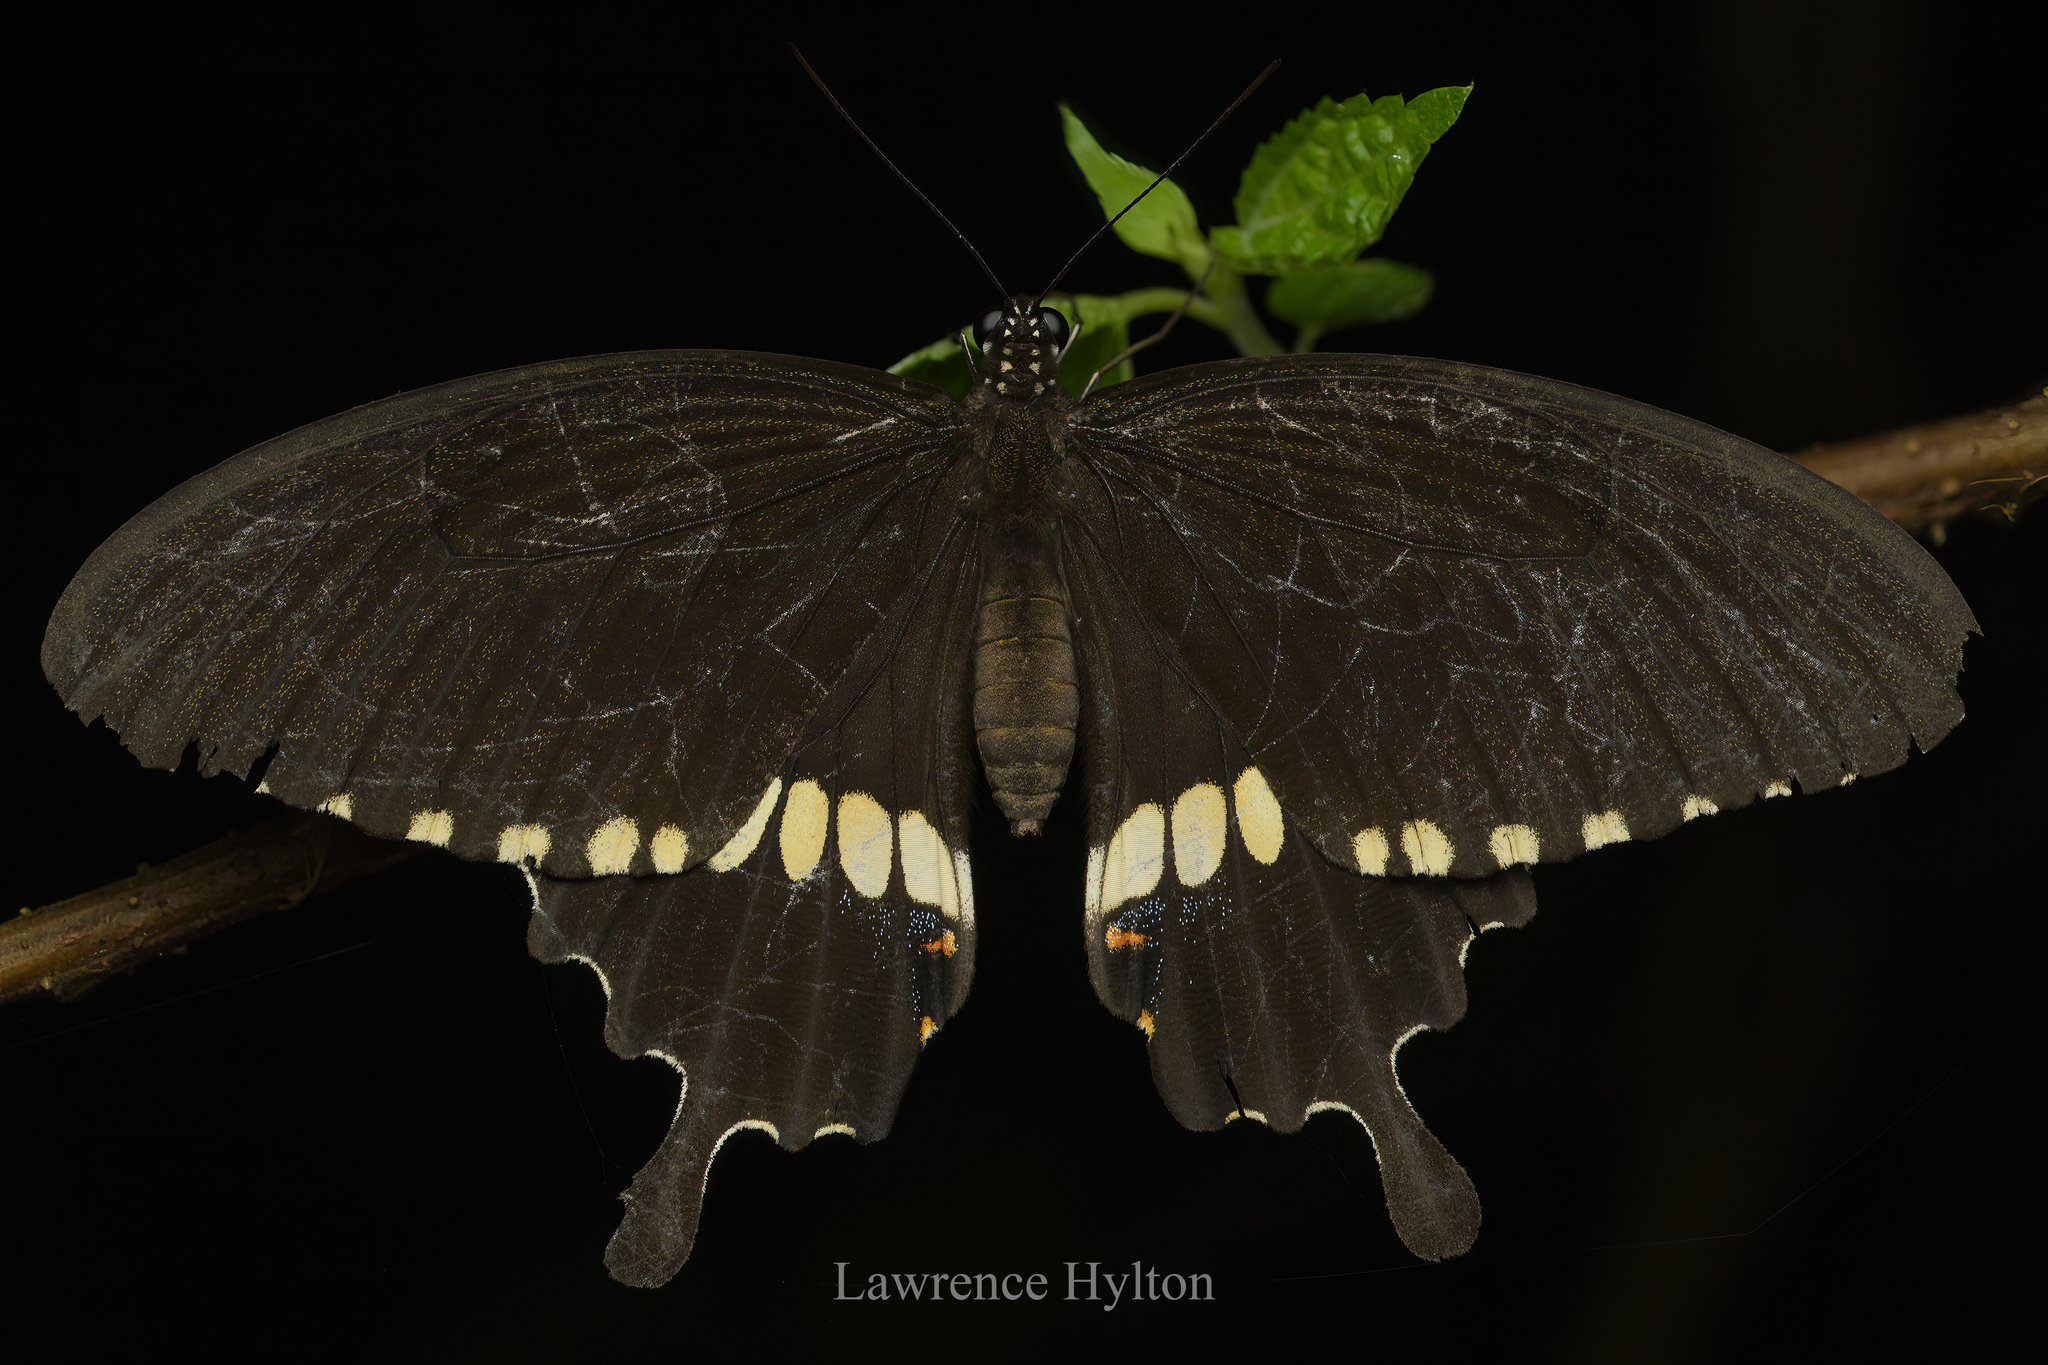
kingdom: Animalia
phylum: Arthropoda
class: Insecta
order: Lepidoptera
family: Papilionidae
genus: Papilio
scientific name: Papilio polytes
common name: Common mormon
